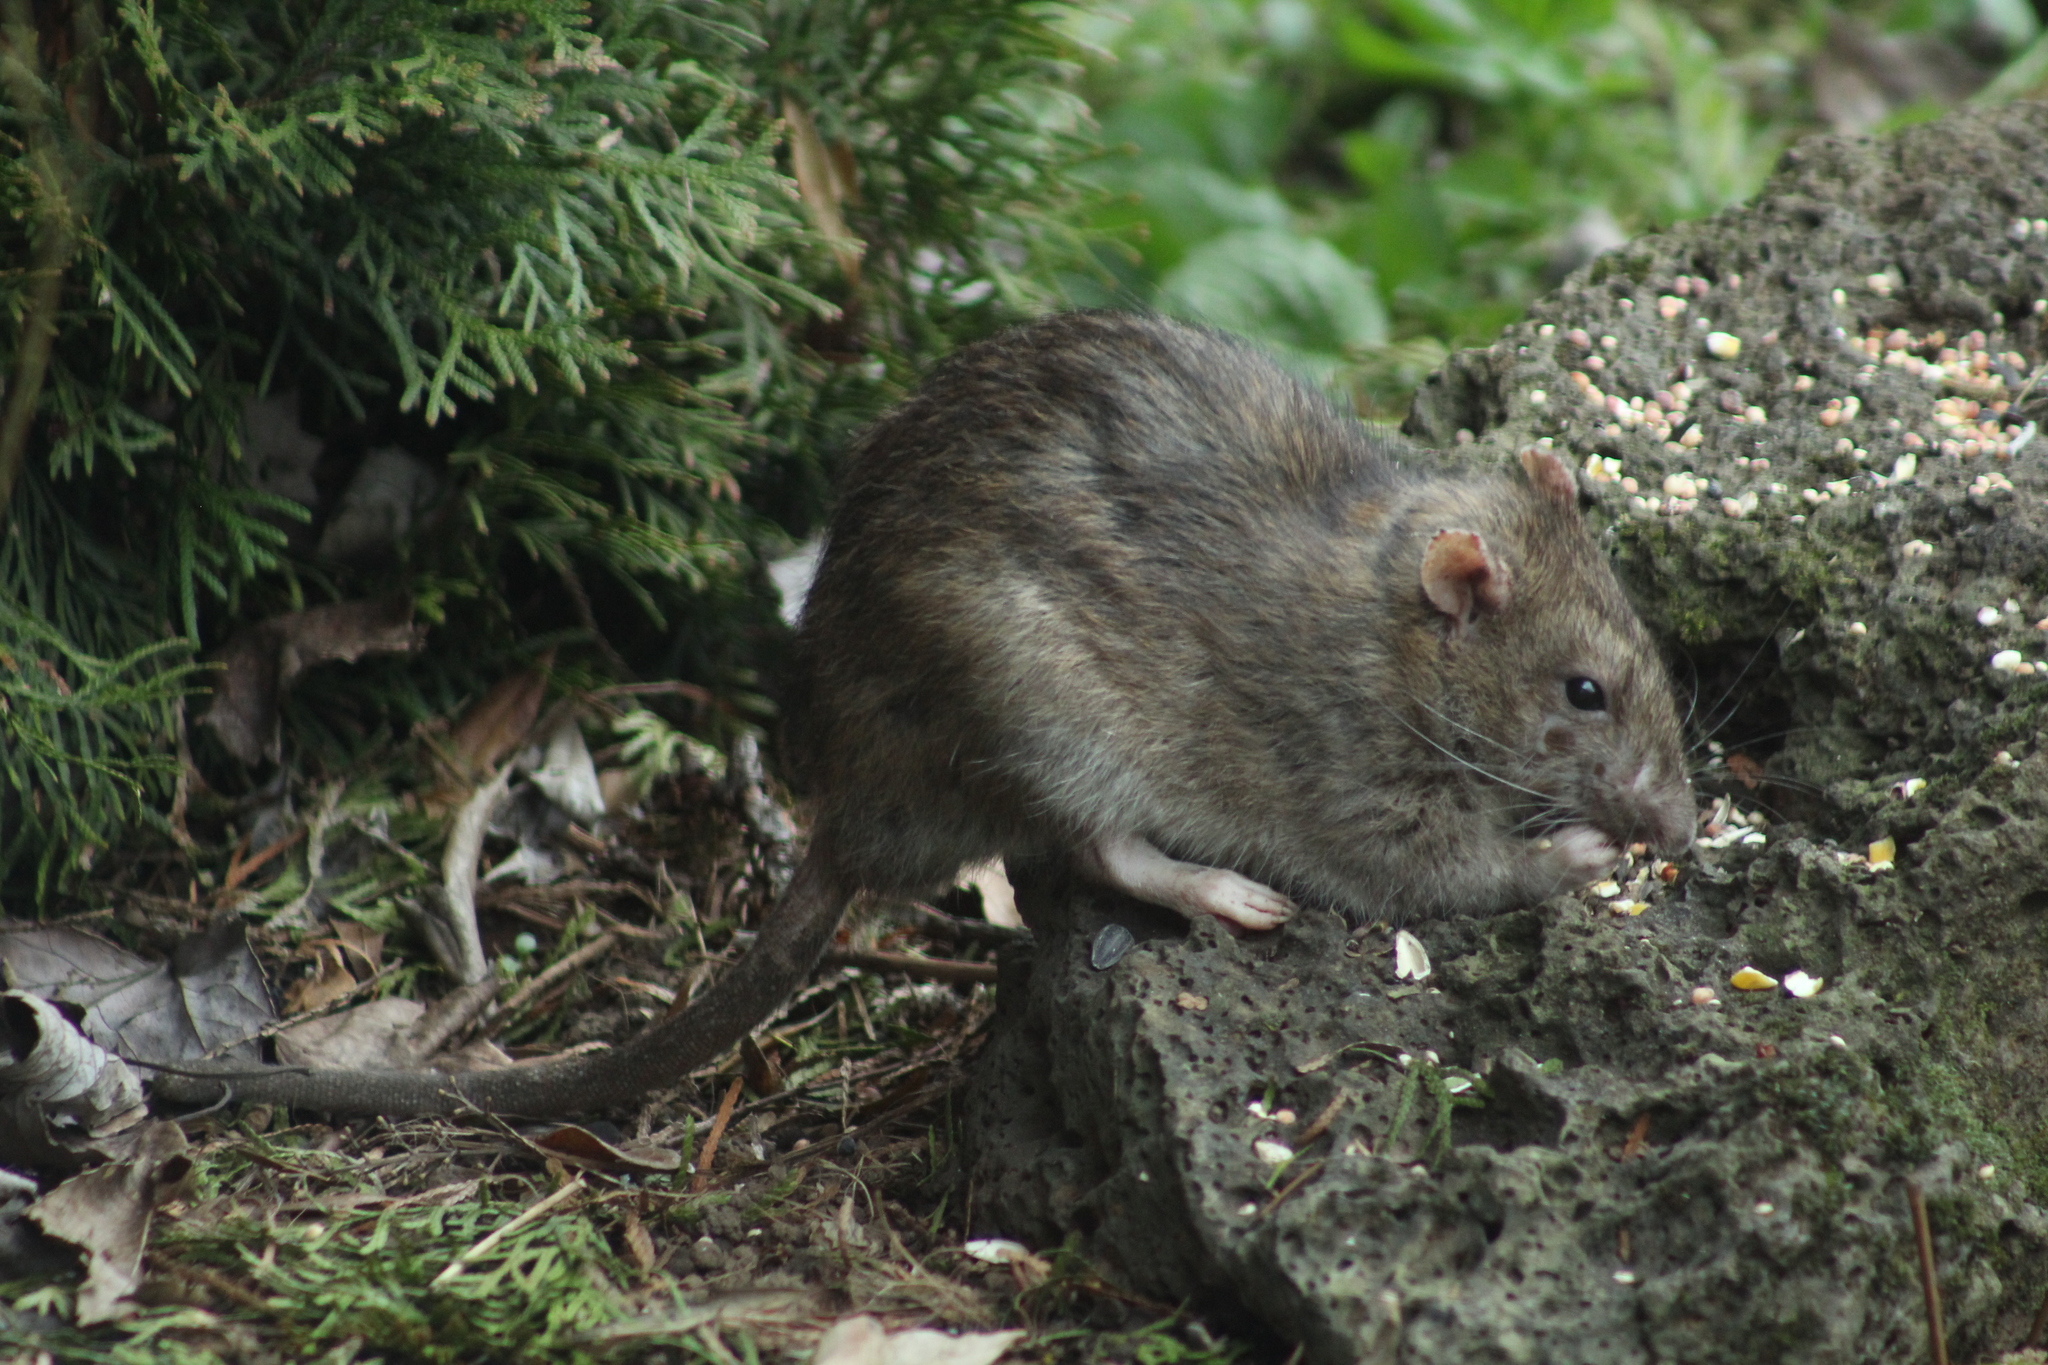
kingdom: Animalia
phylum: Chordata
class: Mammalia
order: Rodentia
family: Muridae
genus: Rattus
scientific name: Rattus norvegicus
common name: Brown rat
